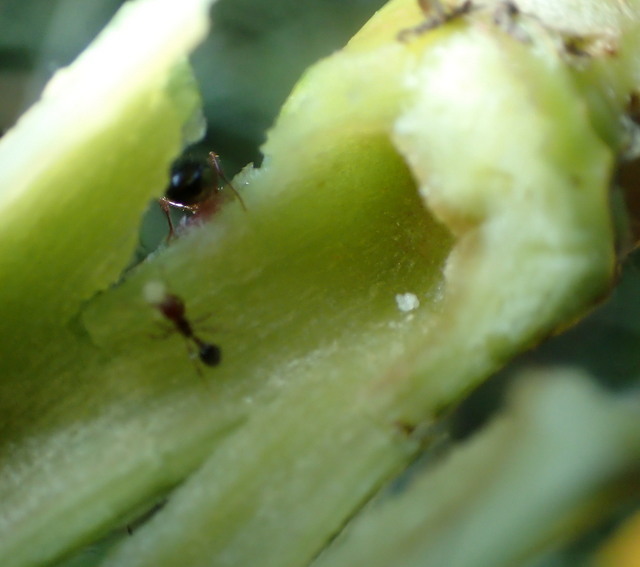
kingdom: Animalia
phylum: Arthropoda
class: Insecta
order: Hymenoptera
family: Formicidae
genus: Solenopsis
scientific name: Solenopsis invicta
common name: Red imported fire ant
